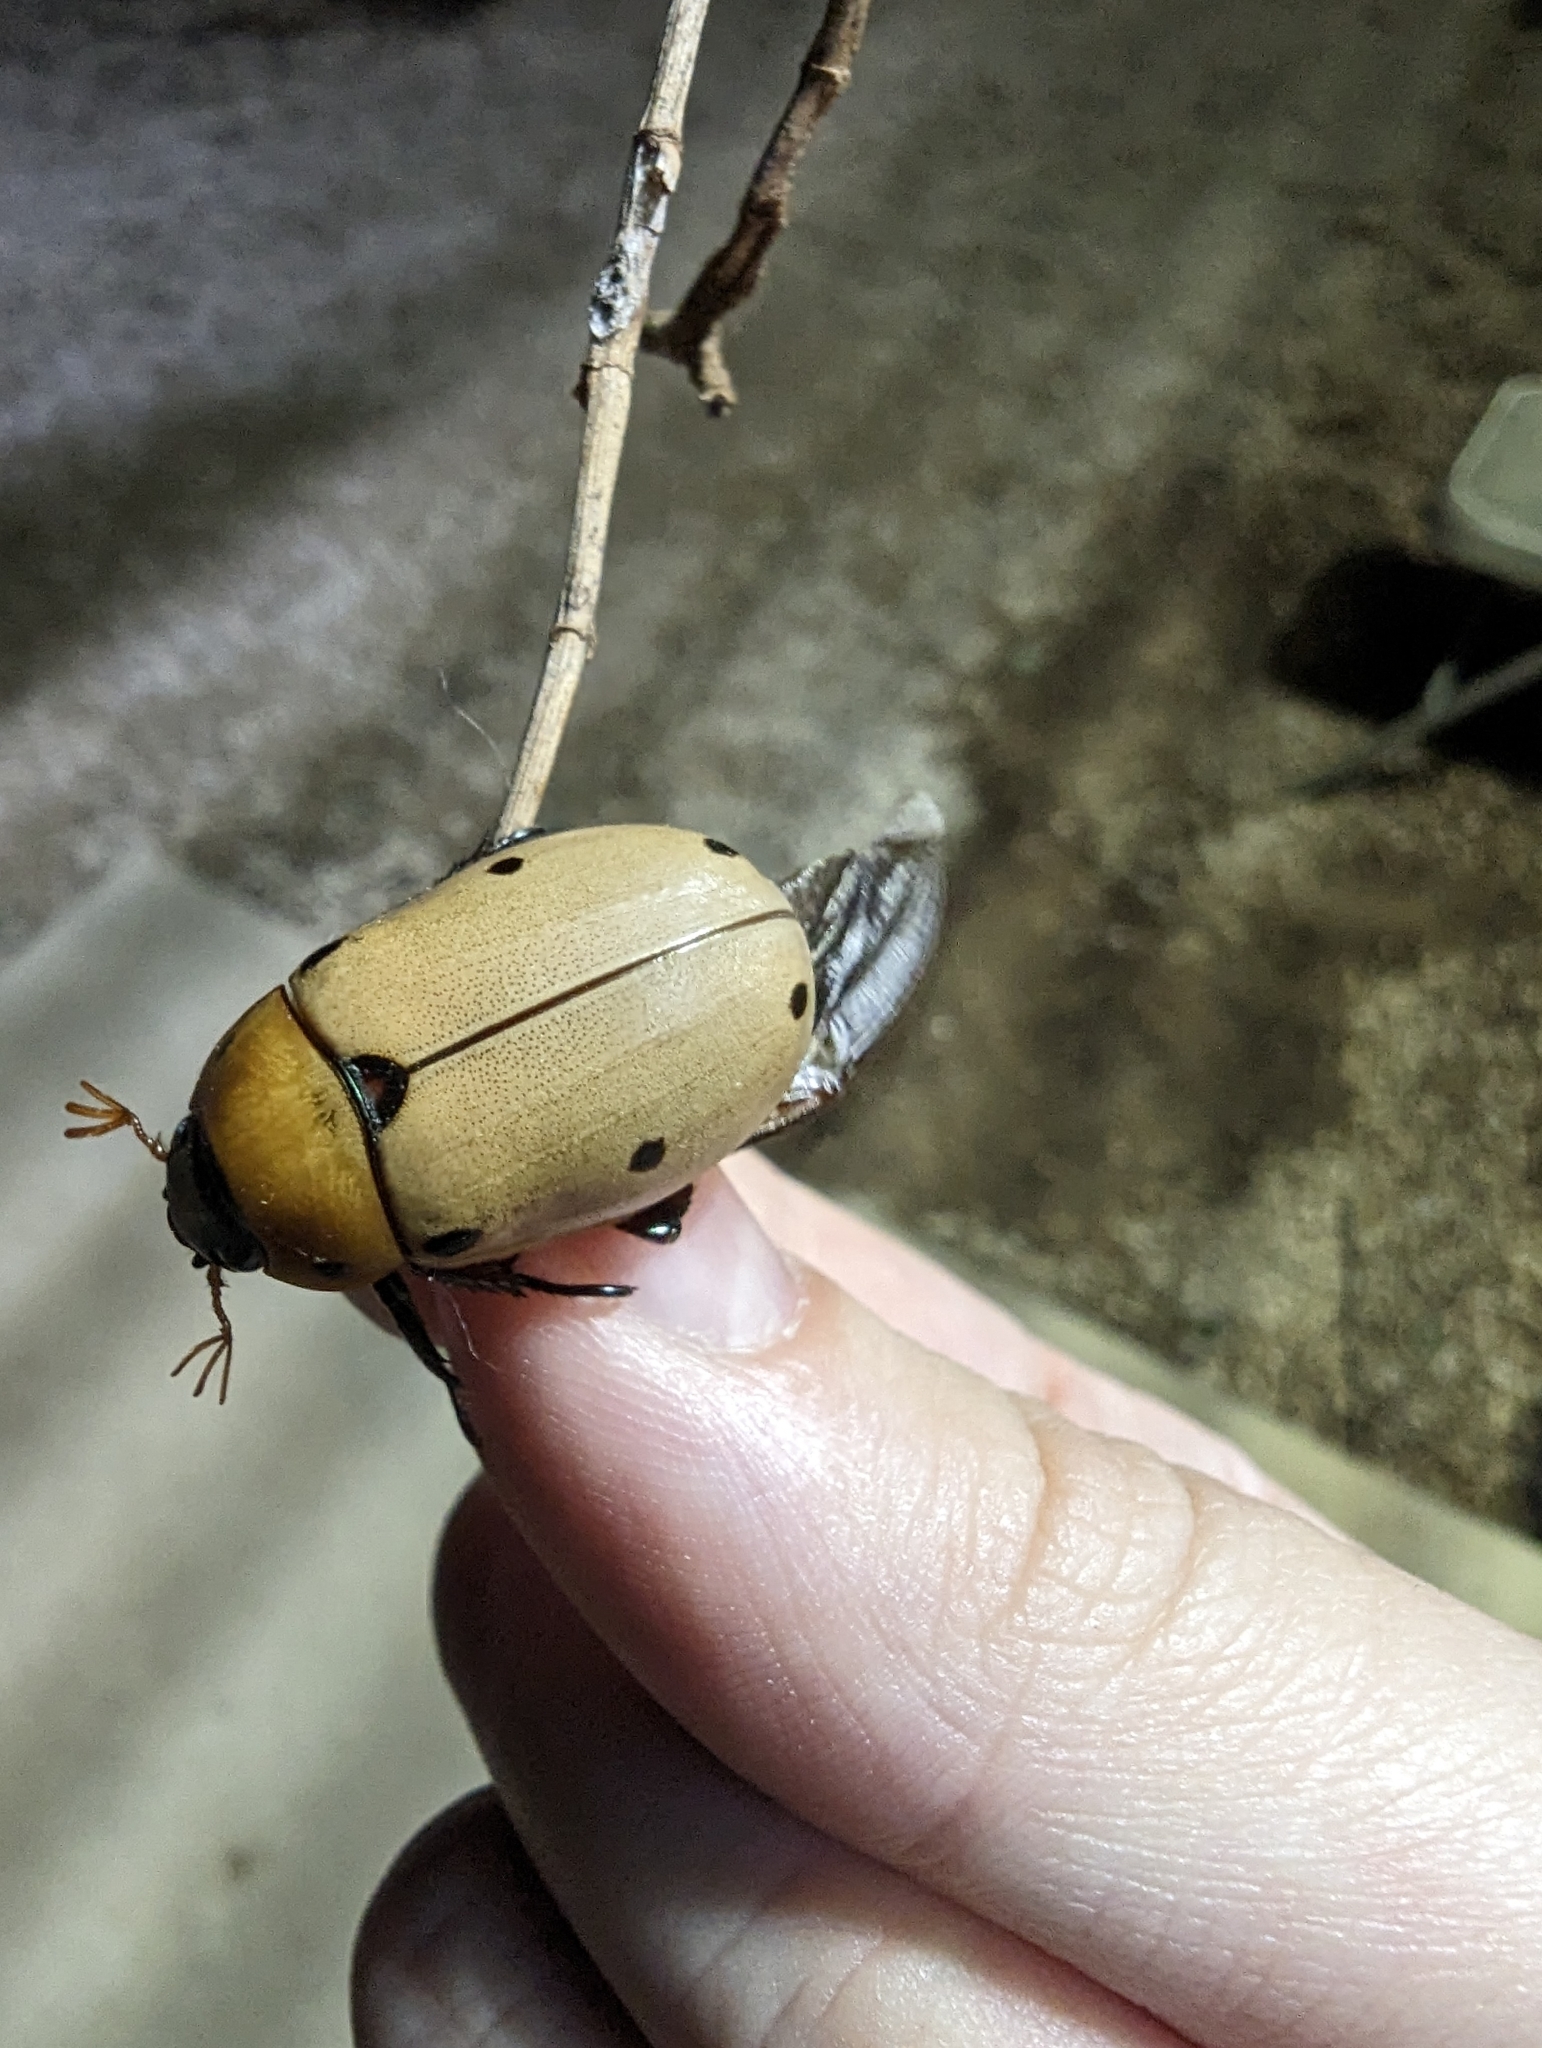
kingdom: Animalia
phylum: Arthropoda
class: Insecta
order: Coleoptera
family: Scarabaeidae
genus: Pelidnota
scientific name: Pelidnota punctata
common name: Grapevine beetle
